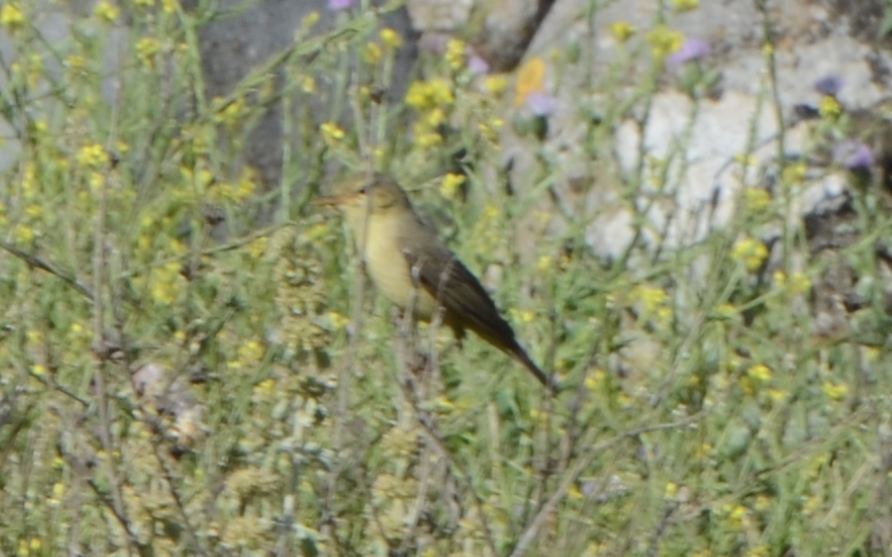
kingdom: Animalia
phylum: Chordata
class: Aves
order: Passeriformes
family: Acrocephalidae
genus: Hippolais
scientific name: Hippolais polyglotta
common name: Melodious warbler
